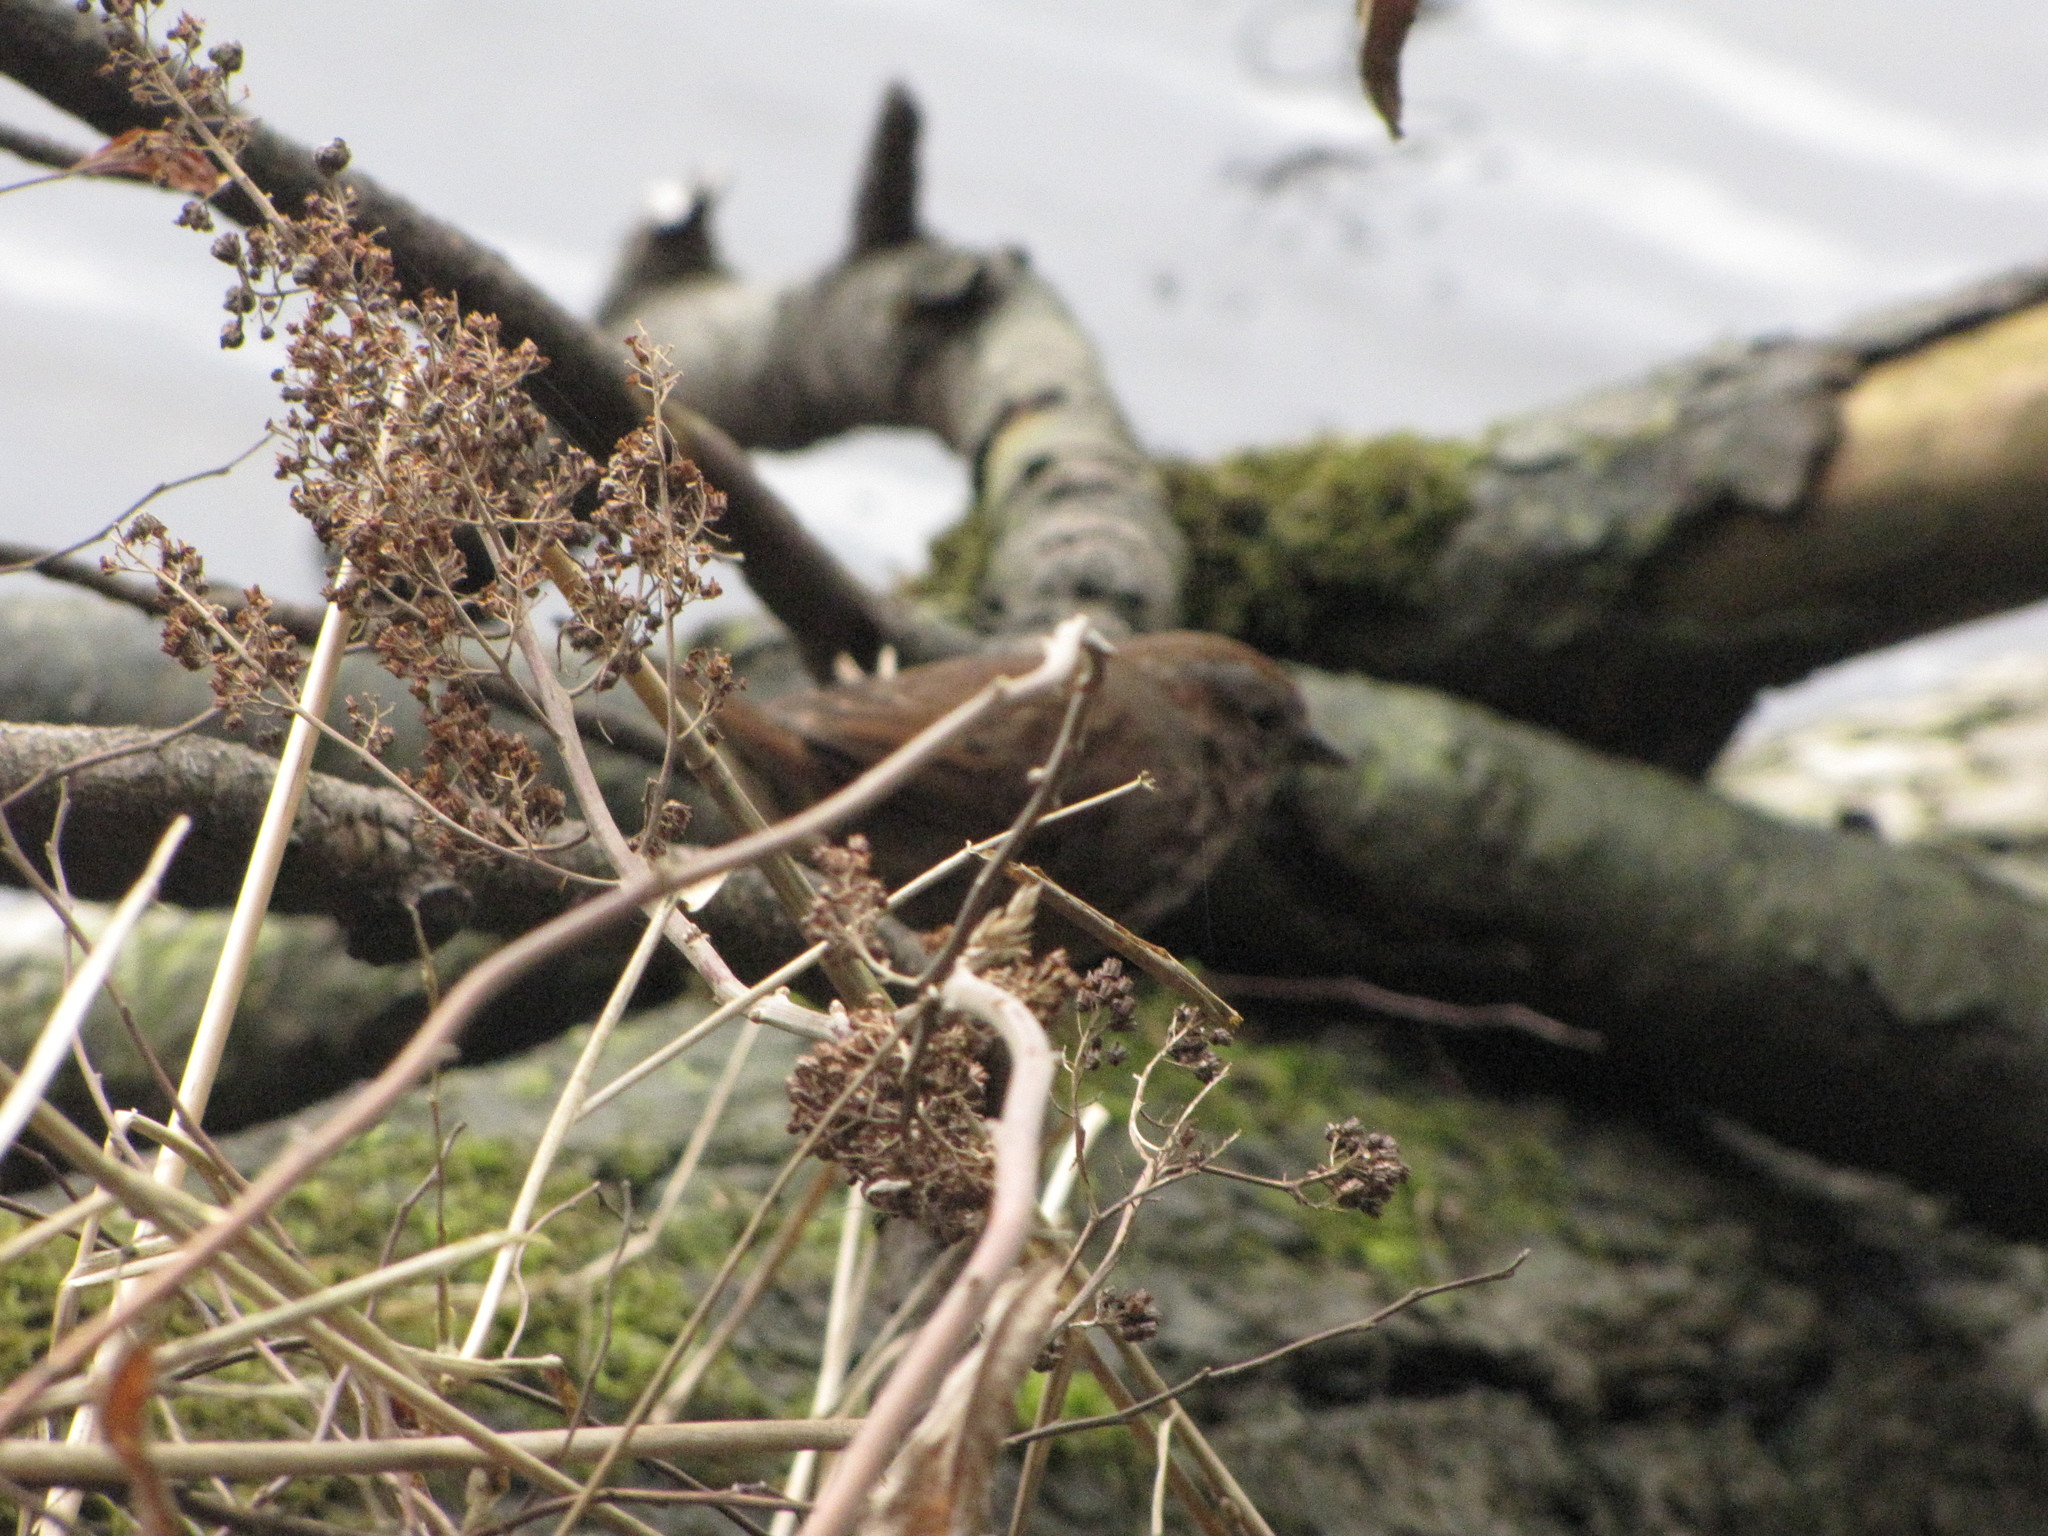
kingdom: Animalia
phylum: Chordata
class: Aves
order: Passeriformes
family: Passerellidae
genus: Melospiza
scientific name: Melospiza melodia
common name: Song sparrow
